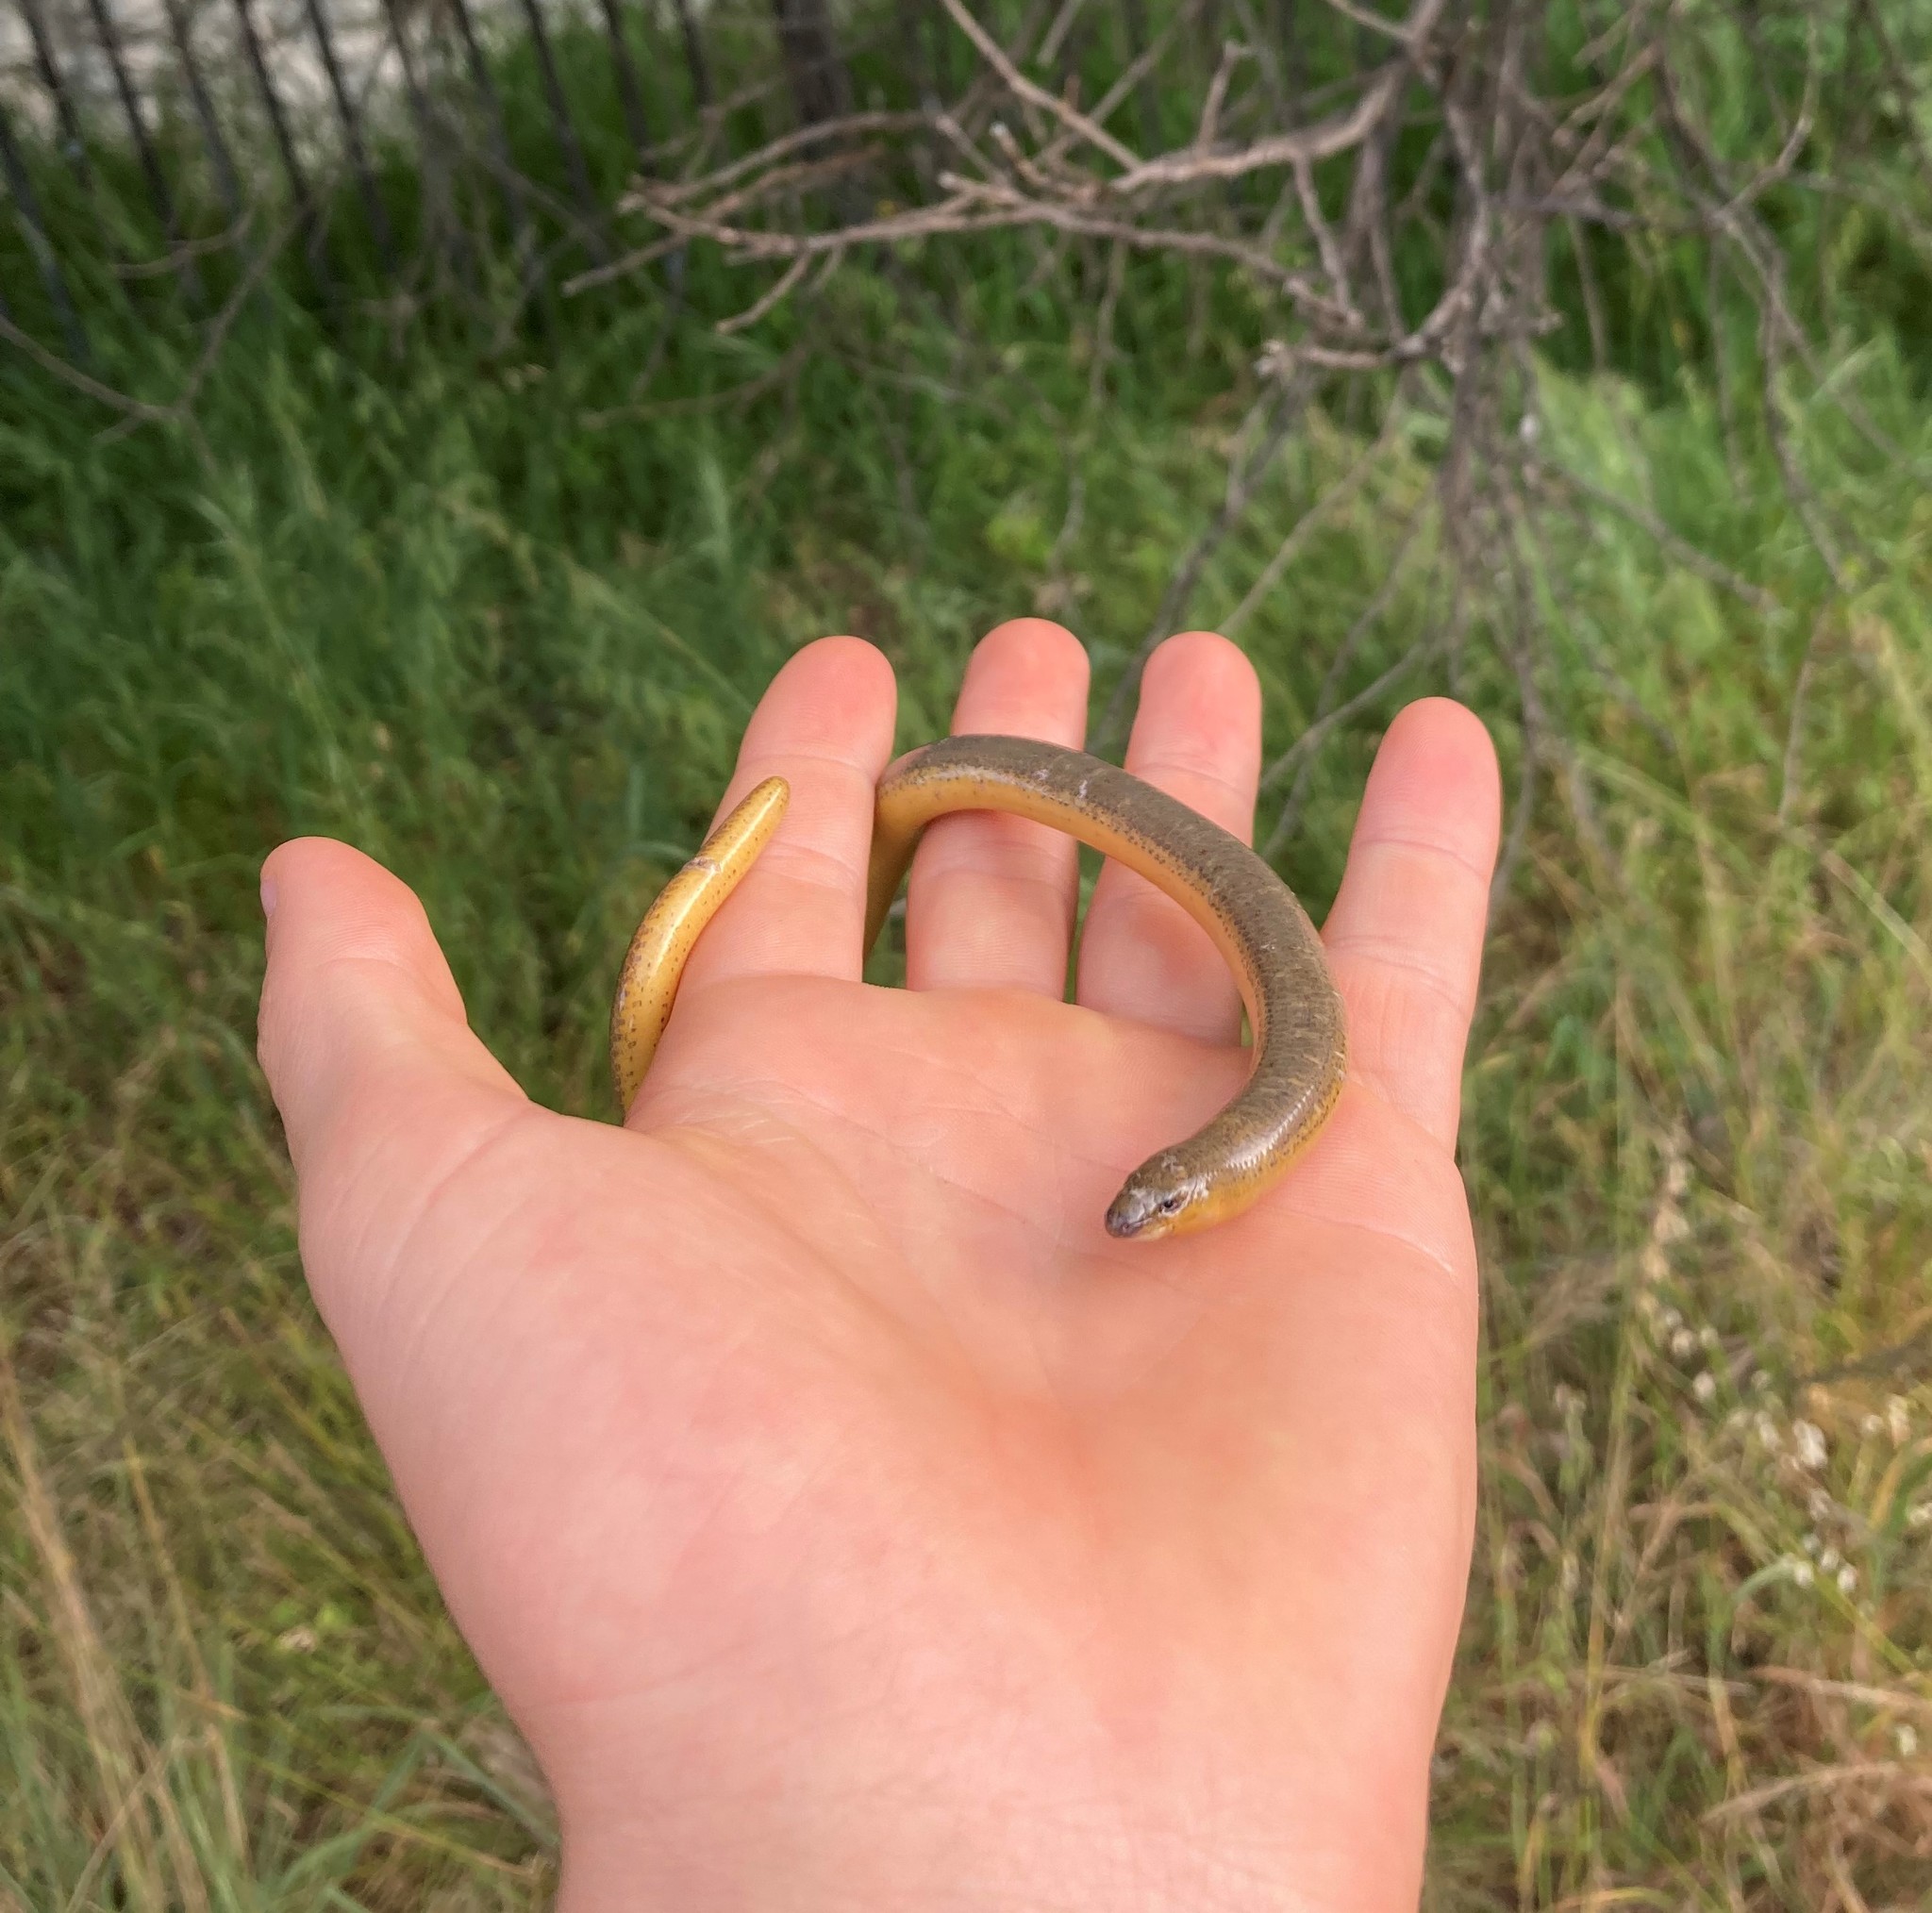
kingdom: Animalia
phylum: Chordata
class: Squamata
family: Scincidae
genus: Acontias
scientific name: Acontias meleagris
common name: Cape legless skink
